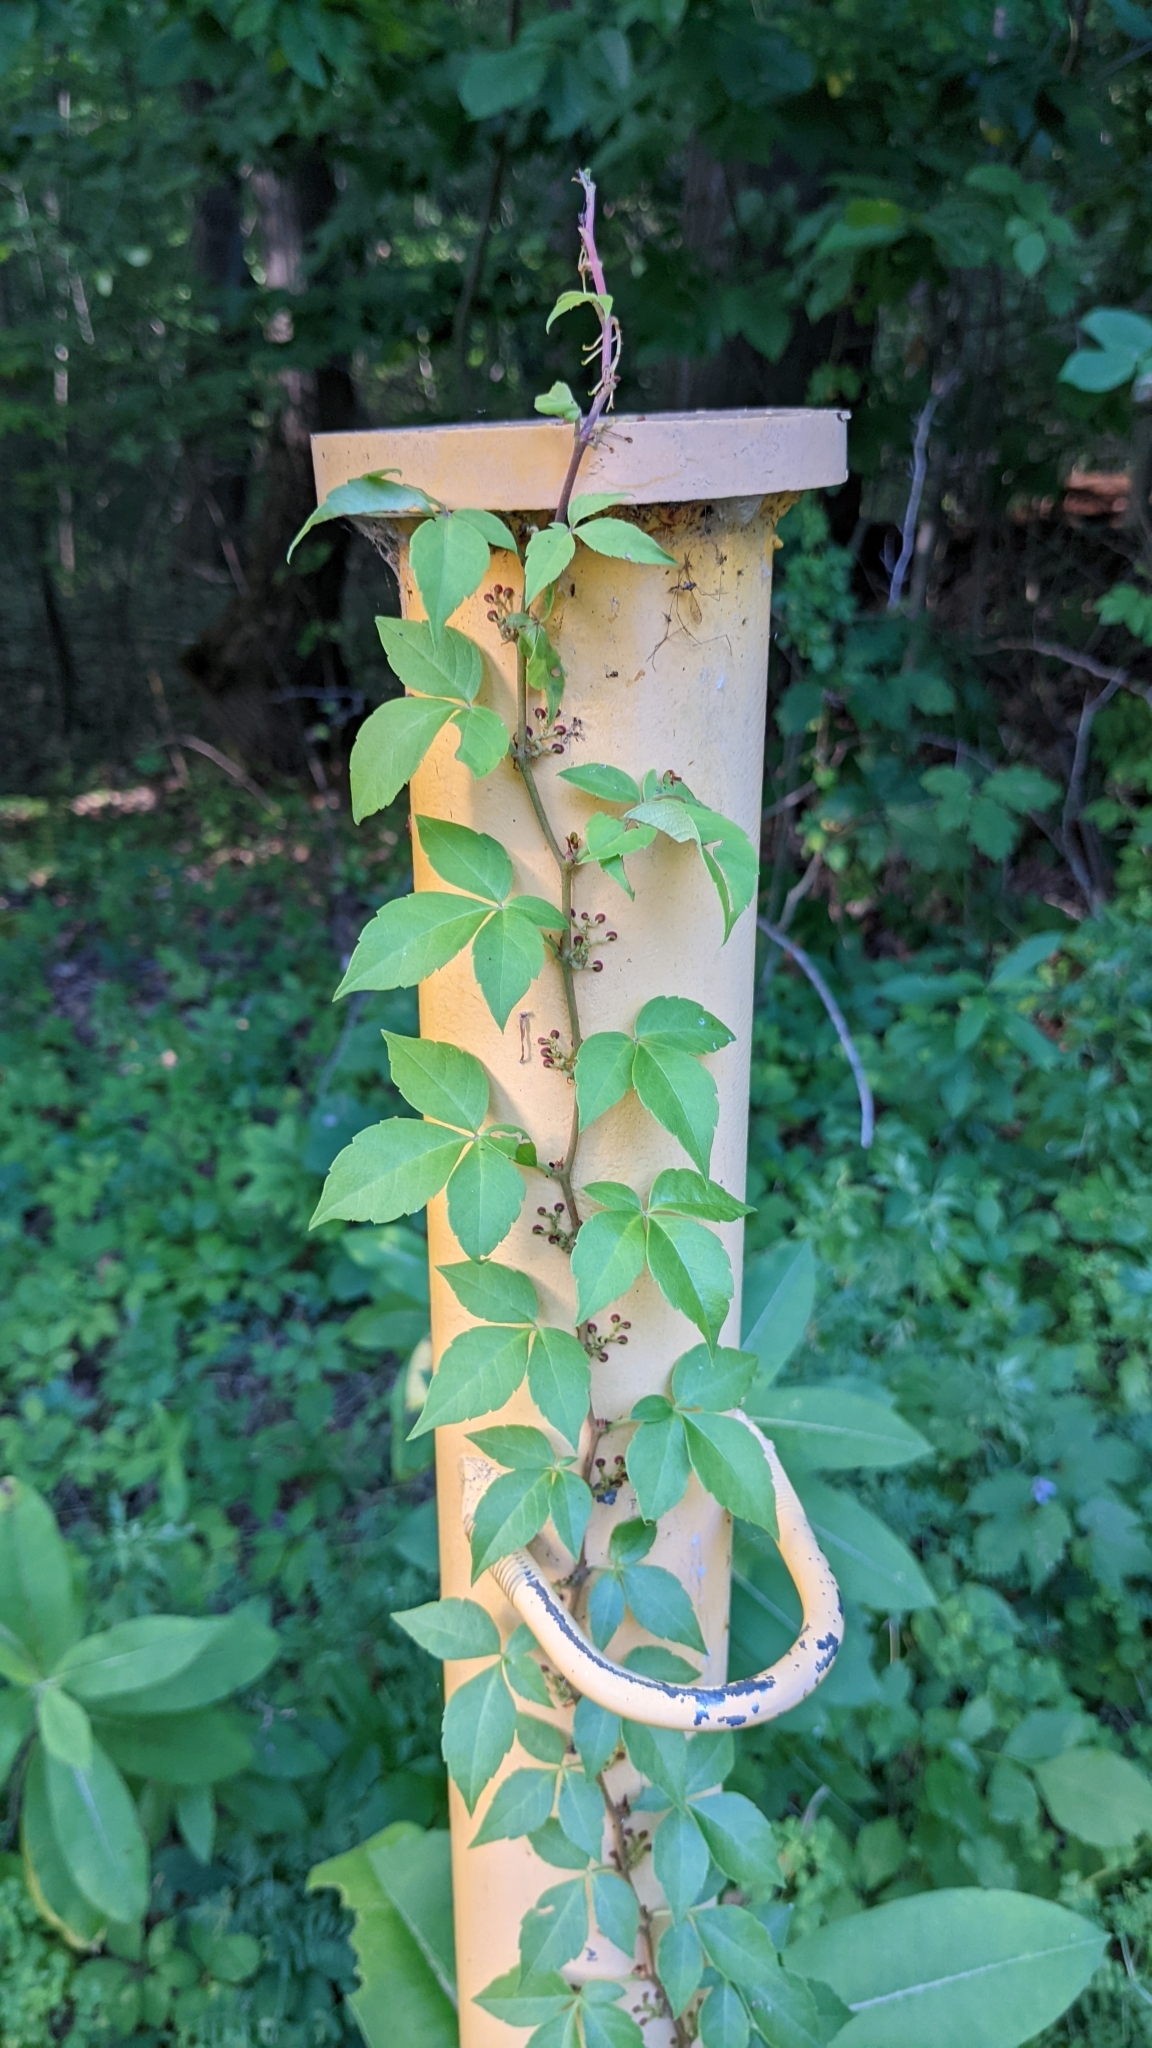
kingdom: Plantae
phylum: Tracheophyta
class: Magnoliopsida
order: Vitales
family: Vitaceae
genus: Parthenocissus
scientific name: Parthenocissus quinquefolia
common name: Virginia-creeper
